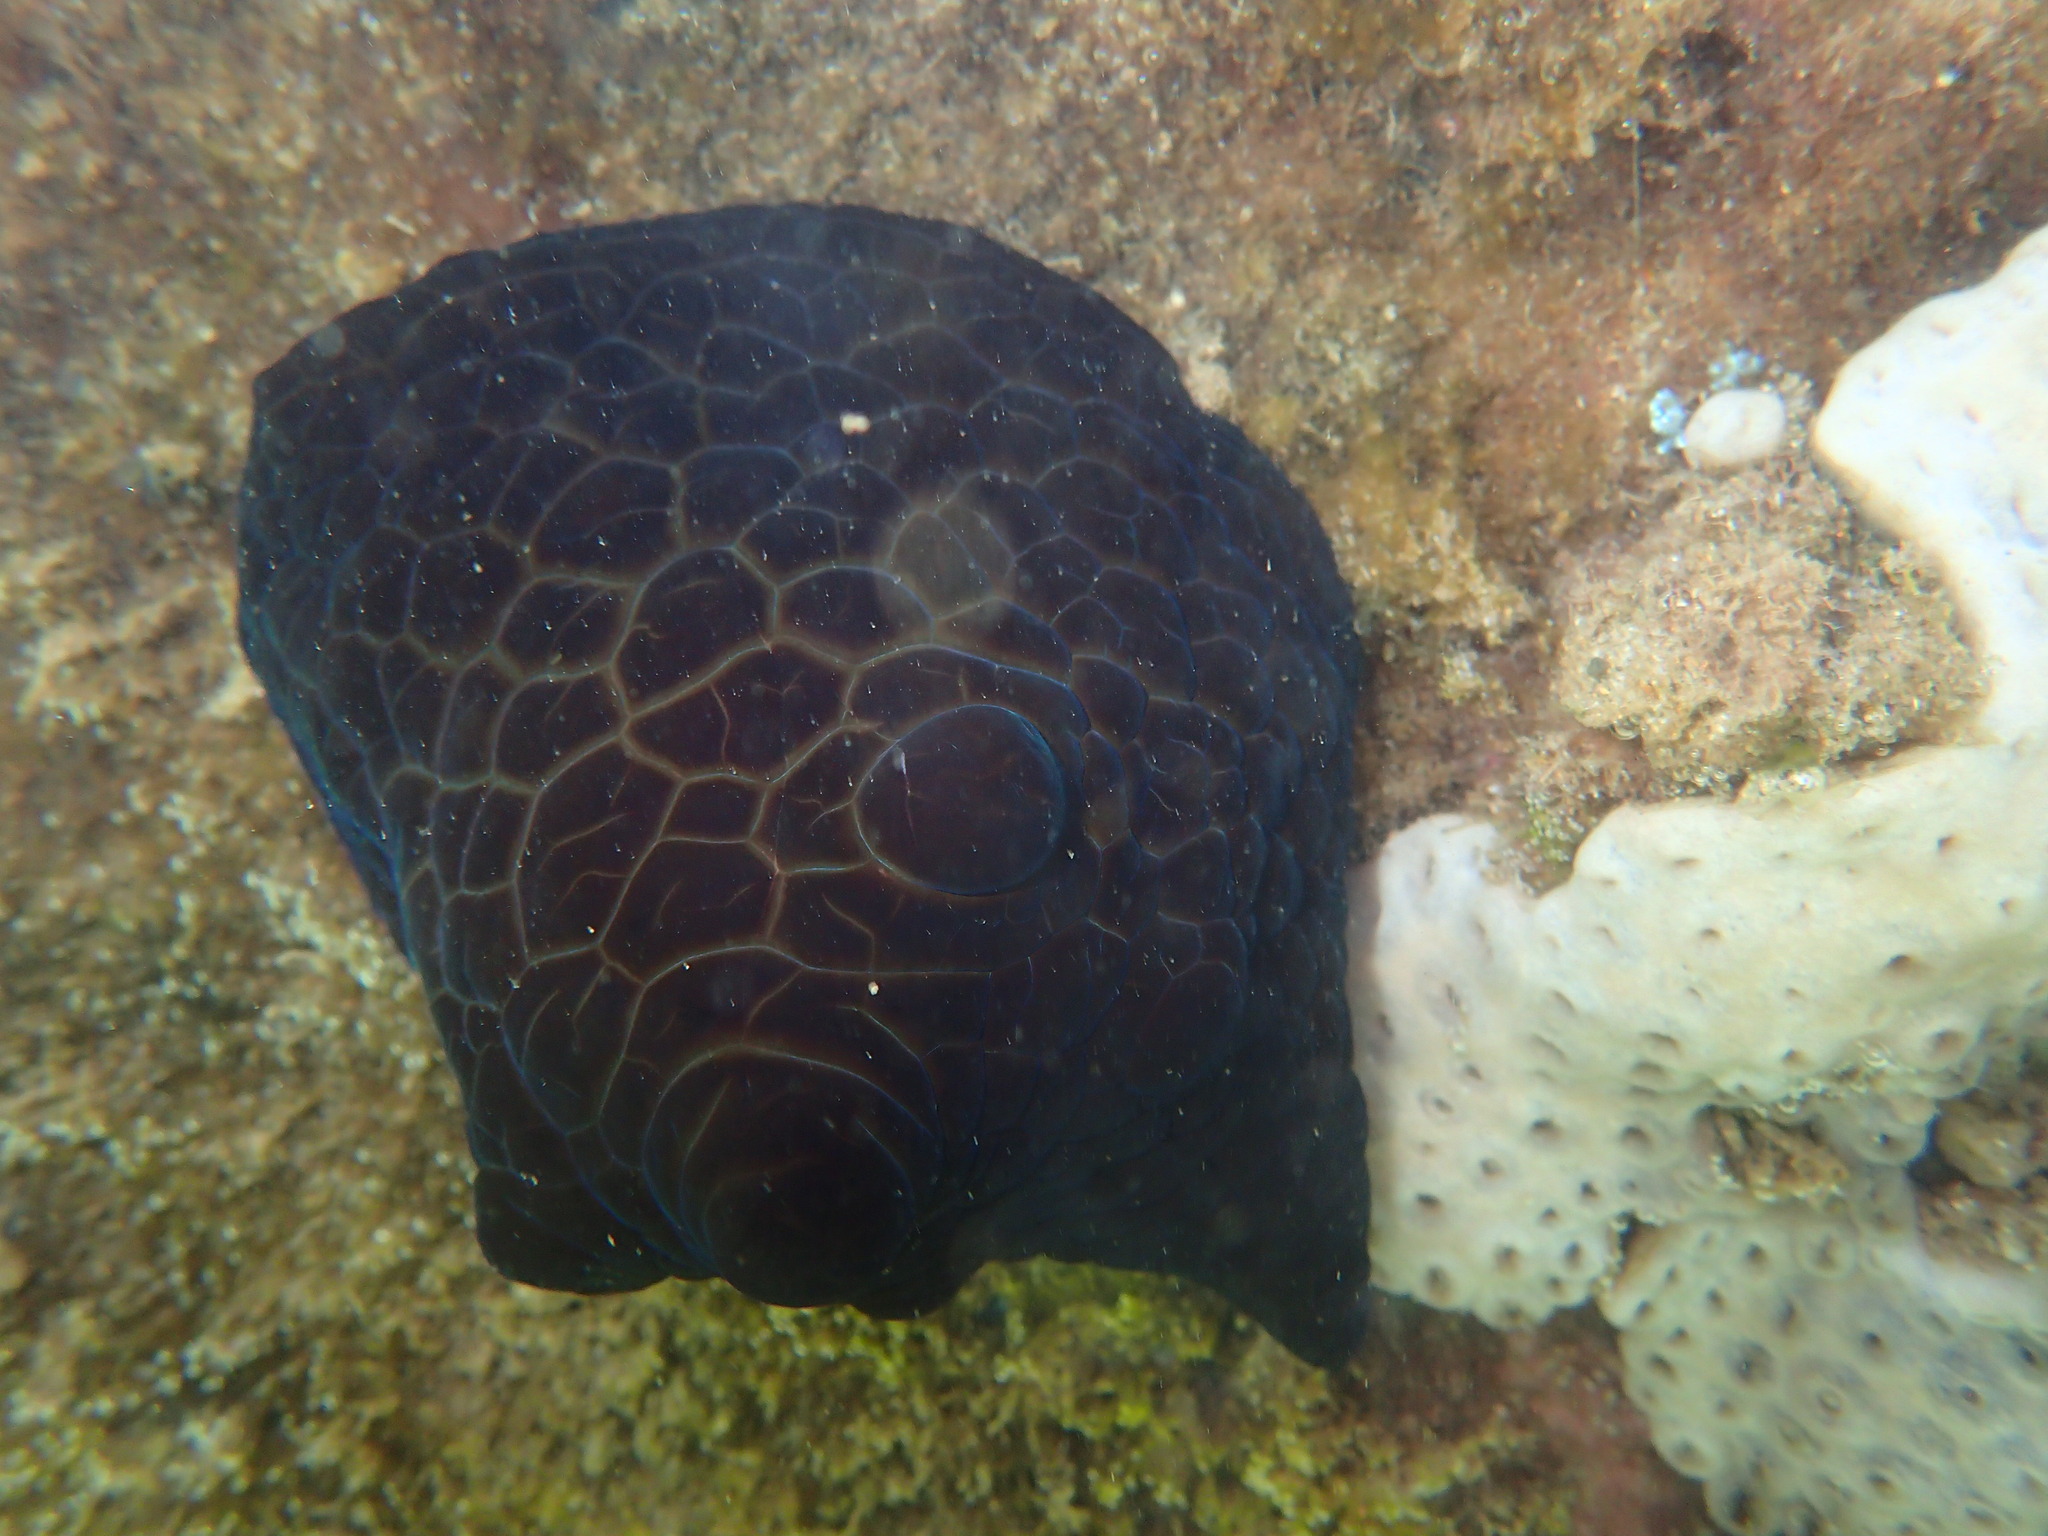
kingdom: Animalia
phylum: Mollusca
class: Gastropoda
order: Littorinimorpha
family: Velutinidae
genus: Coriocella
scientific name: Coriocella nigra
